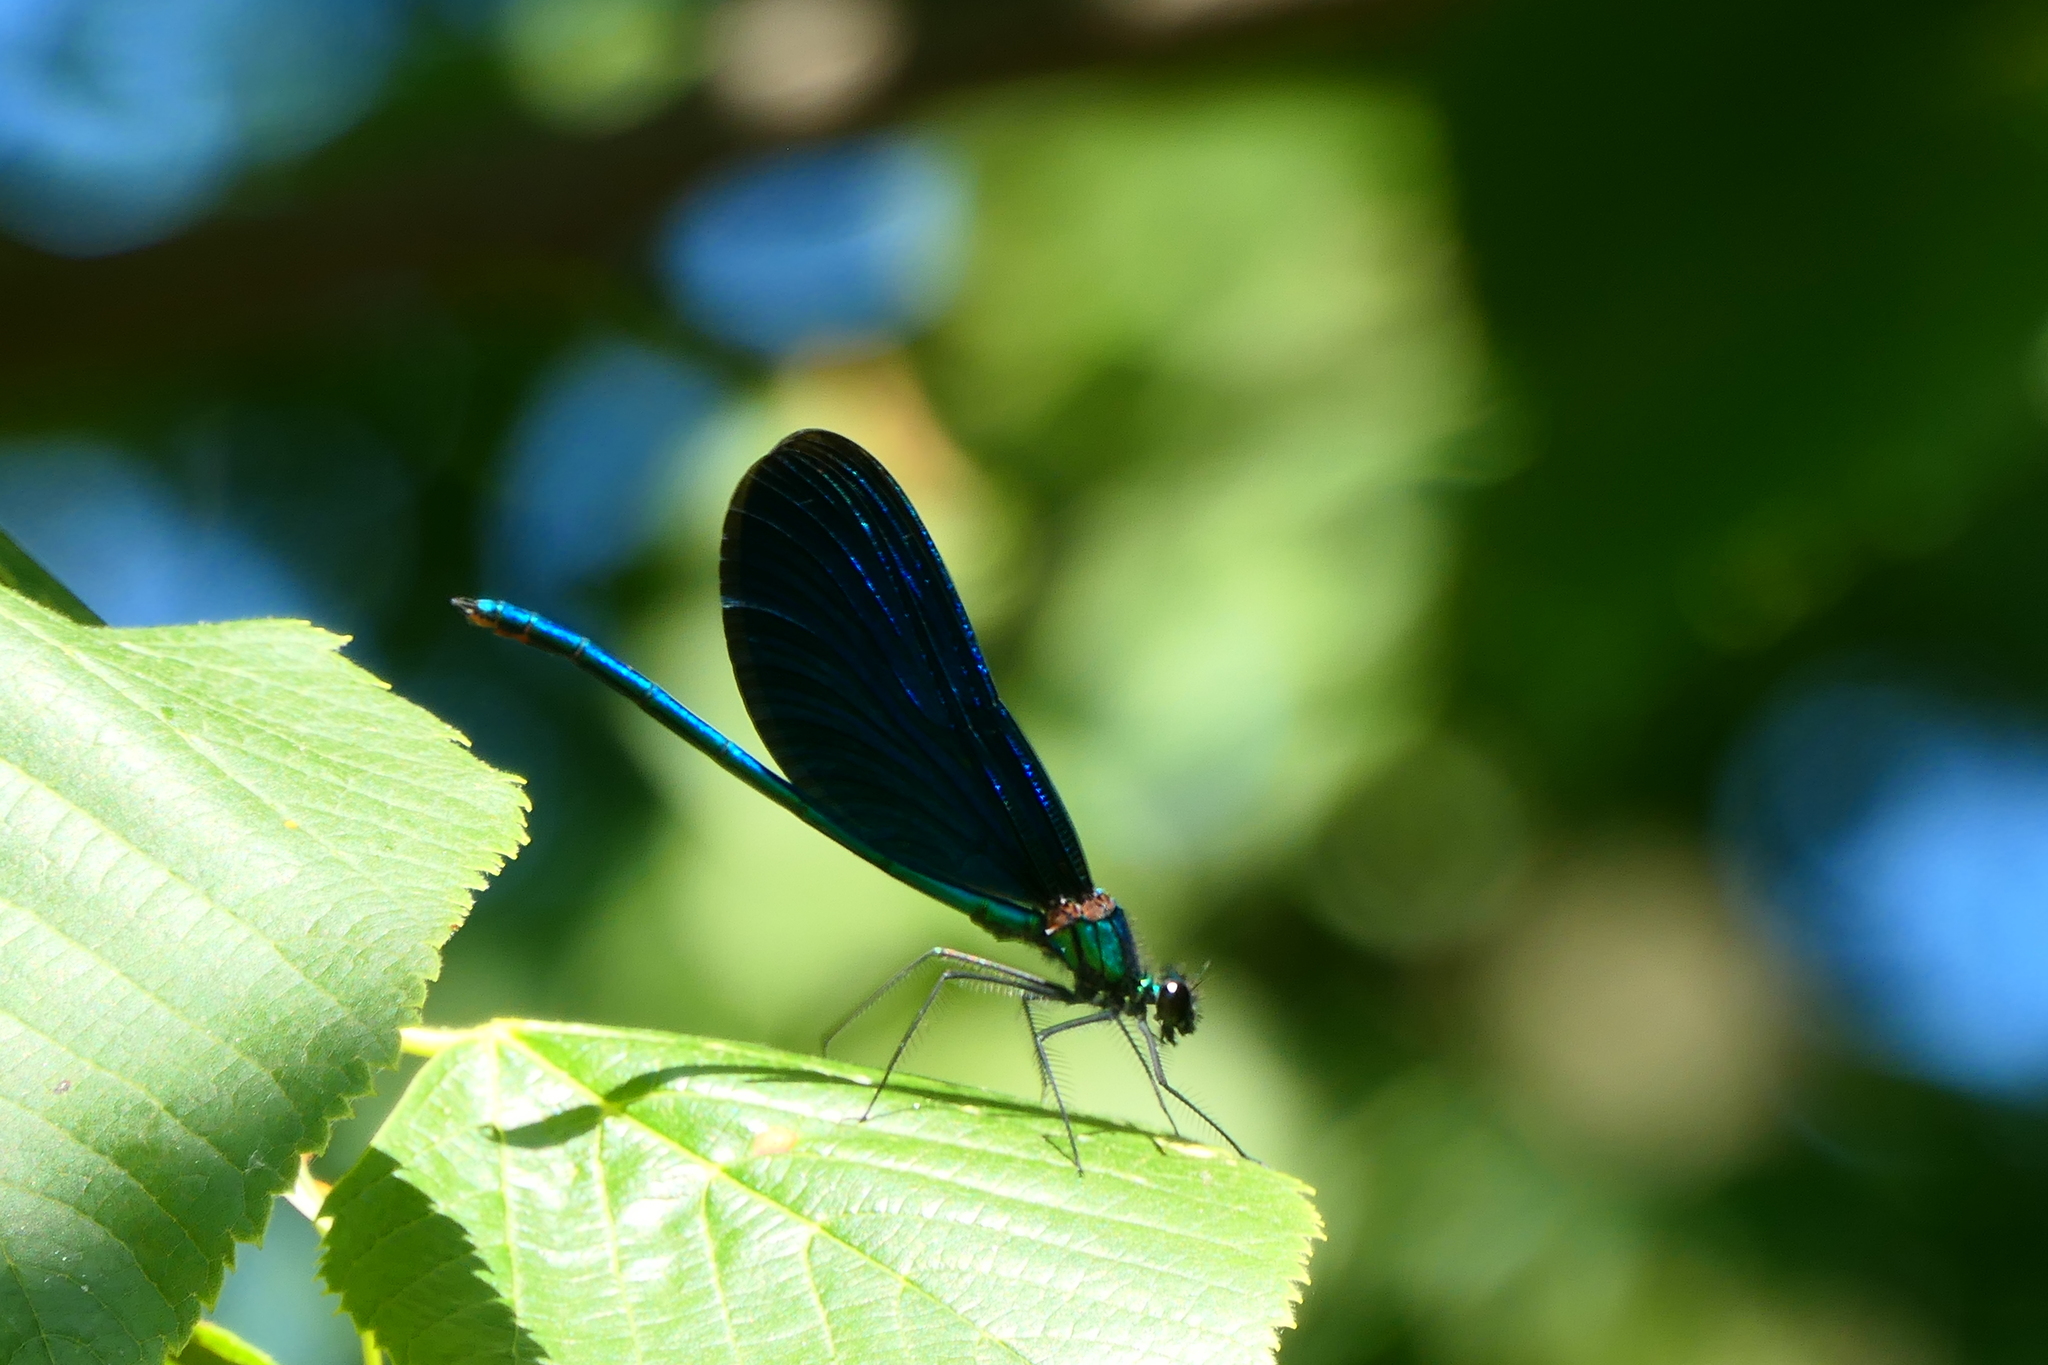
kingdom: Animalia
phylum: Arthropoda
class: Insecta
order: Odonata
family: Calopterygidae
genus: Calopteryx
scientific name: Calopteryx virgo
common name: Beautiful demoiselle
